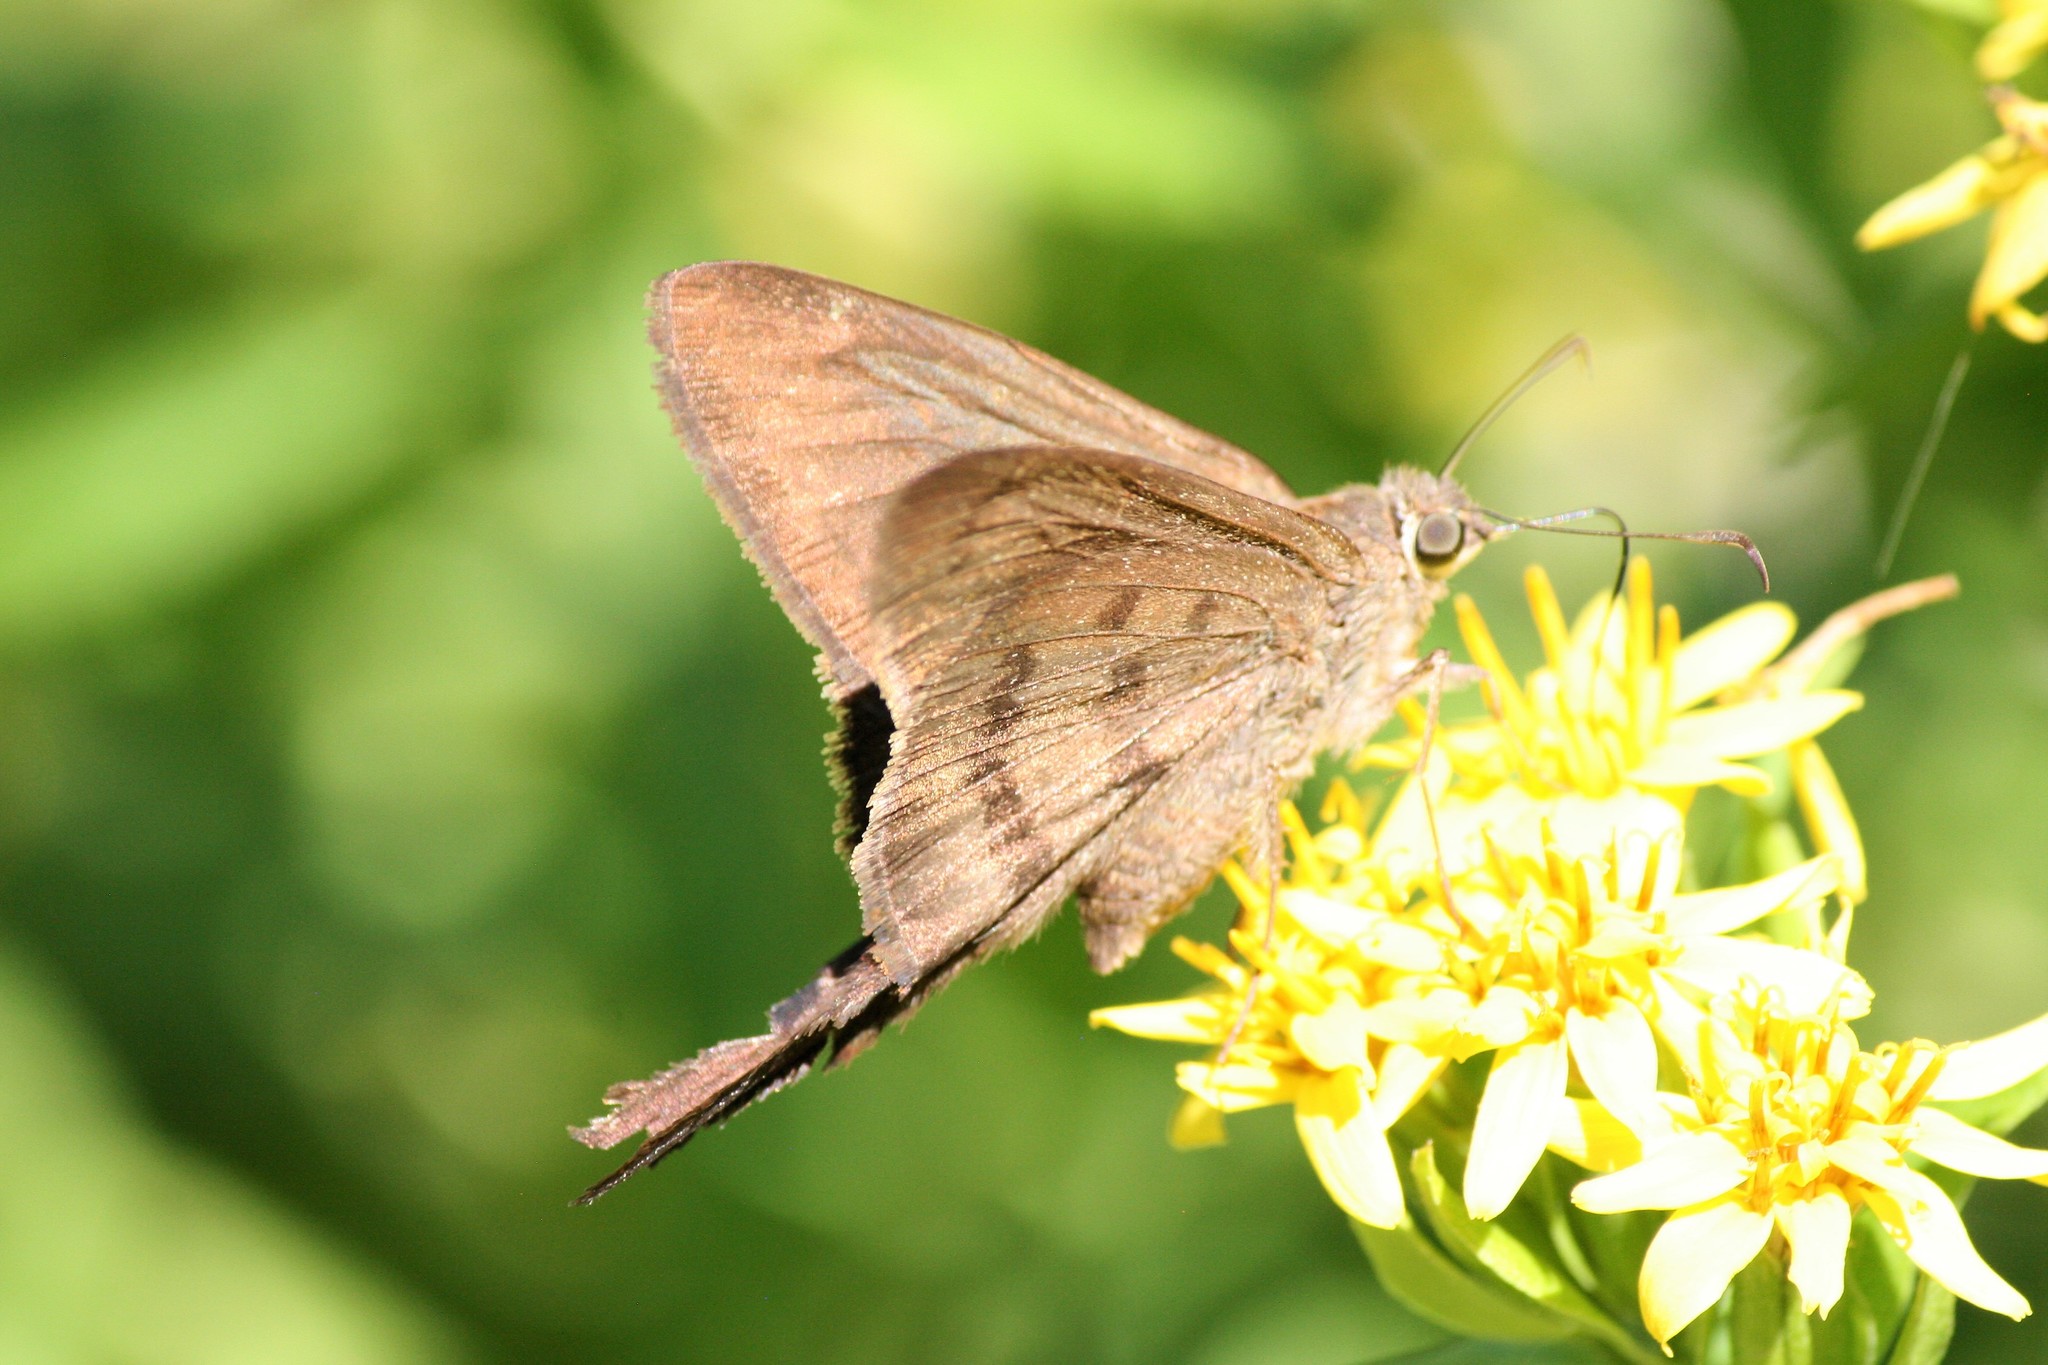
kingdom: Animalia
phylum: Arthropoda
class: Insecta
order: Lepidoptera
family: Hesperiidae
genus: Urbanus
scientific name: Urbanus procne
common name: Brown longtail
